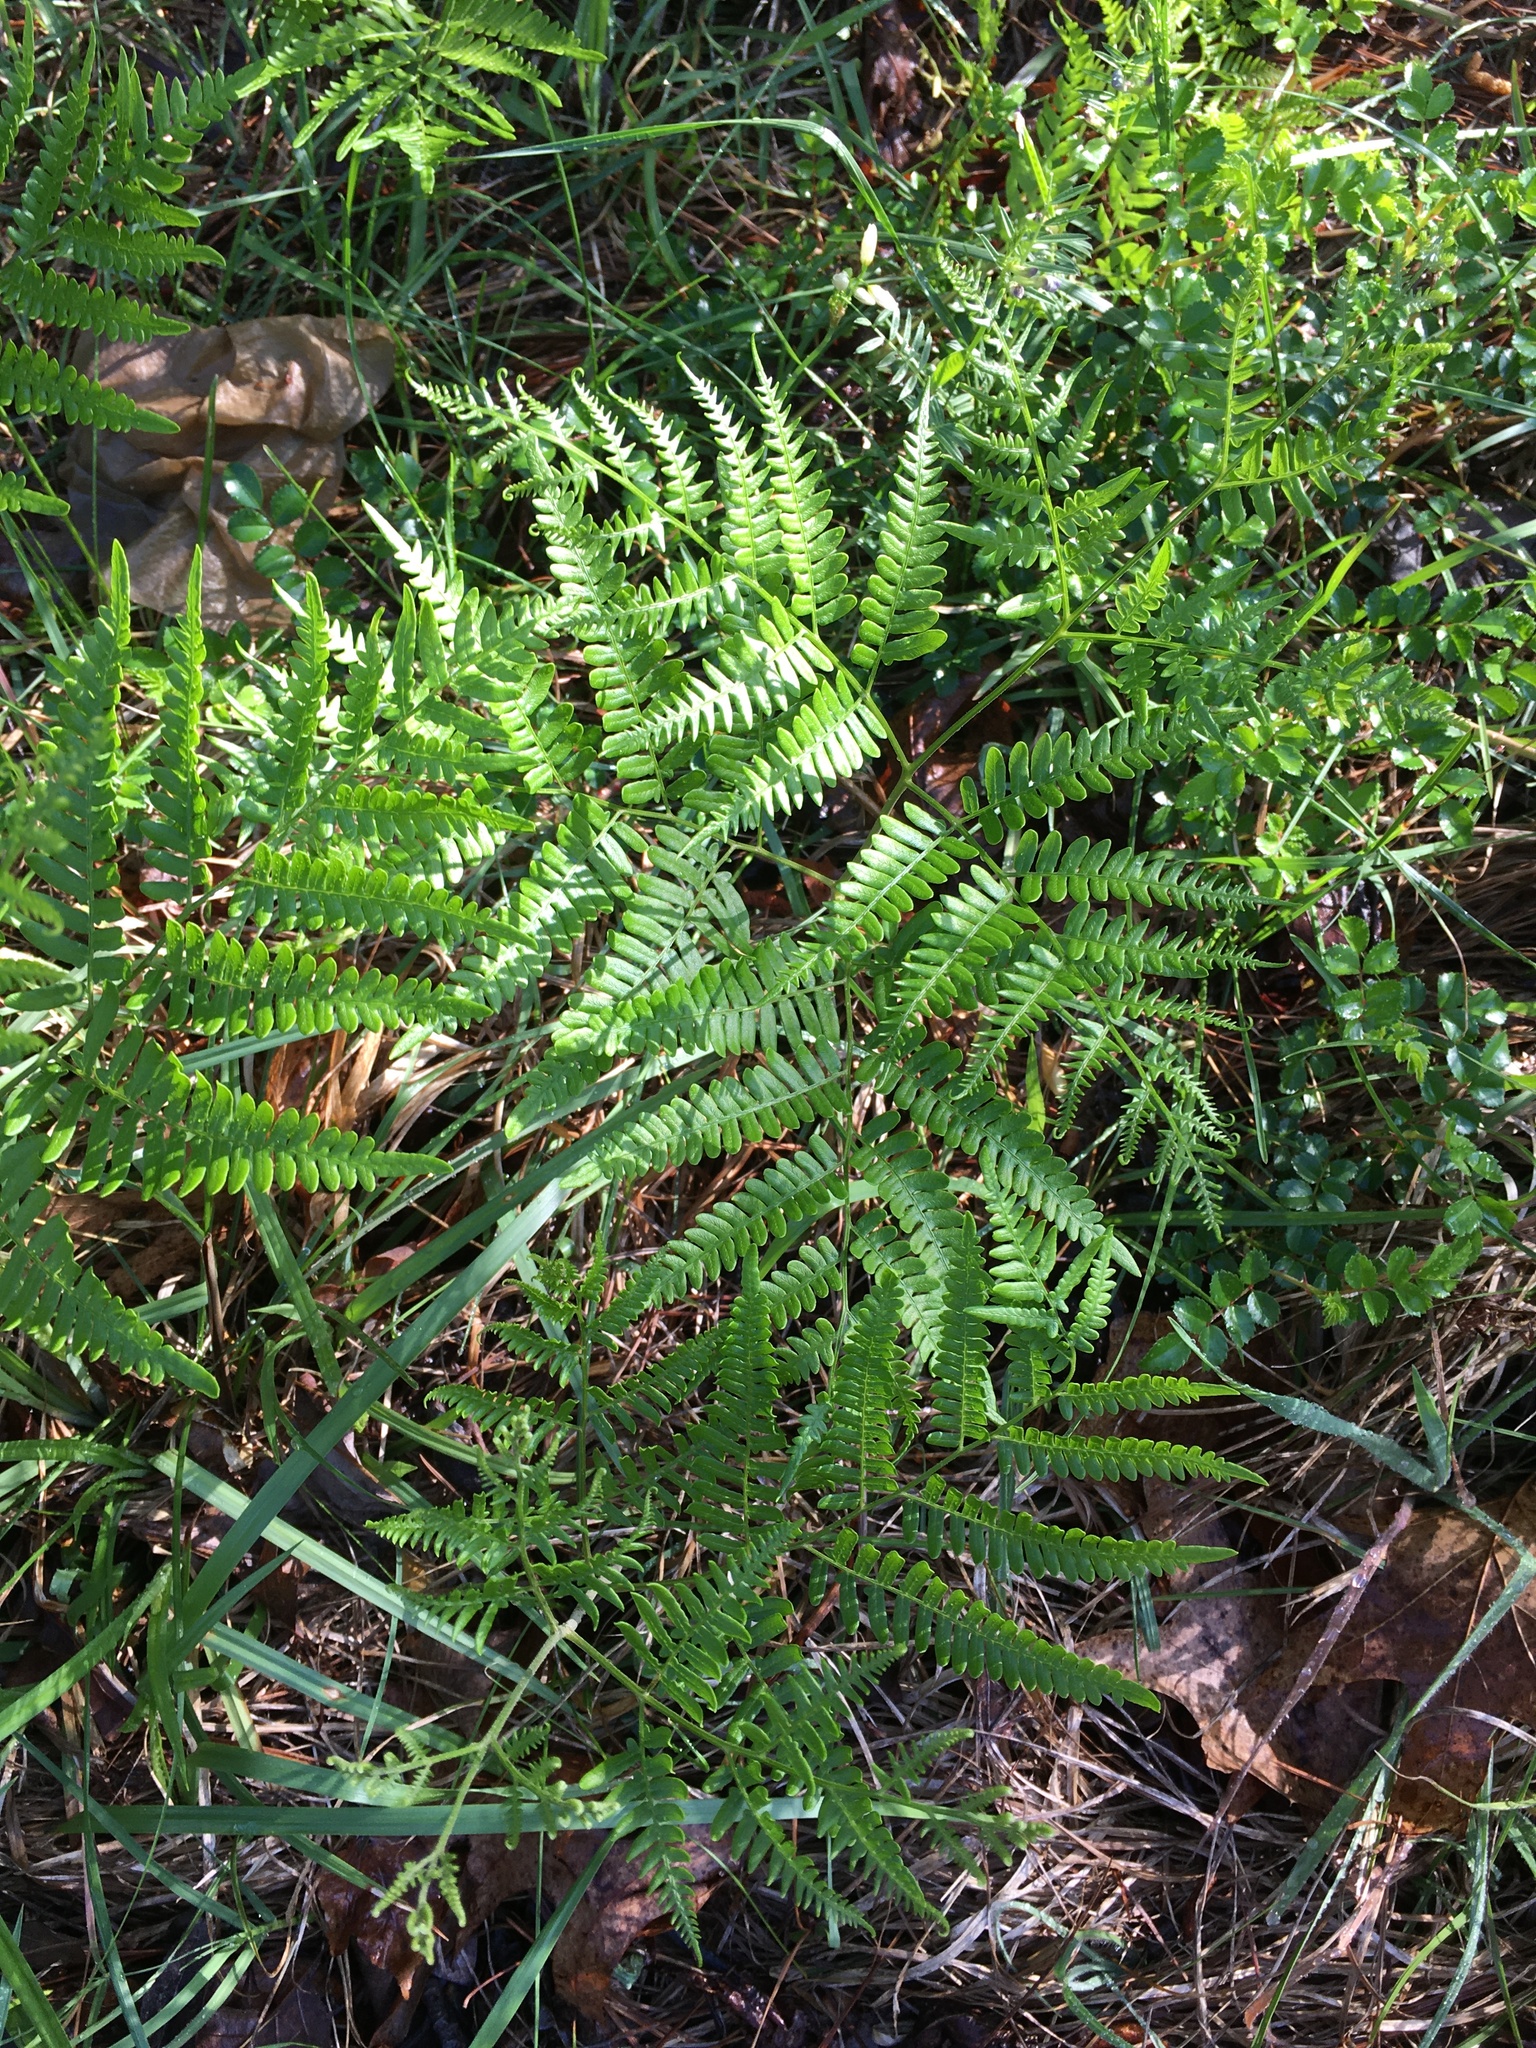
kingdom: Plantae
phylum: Tracheophyta
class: Polypodiopsida
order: Polypodiales
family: Dennstaedtiaceae
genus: Pteridium
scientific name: Pteridium aquilinum
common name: Bracken
